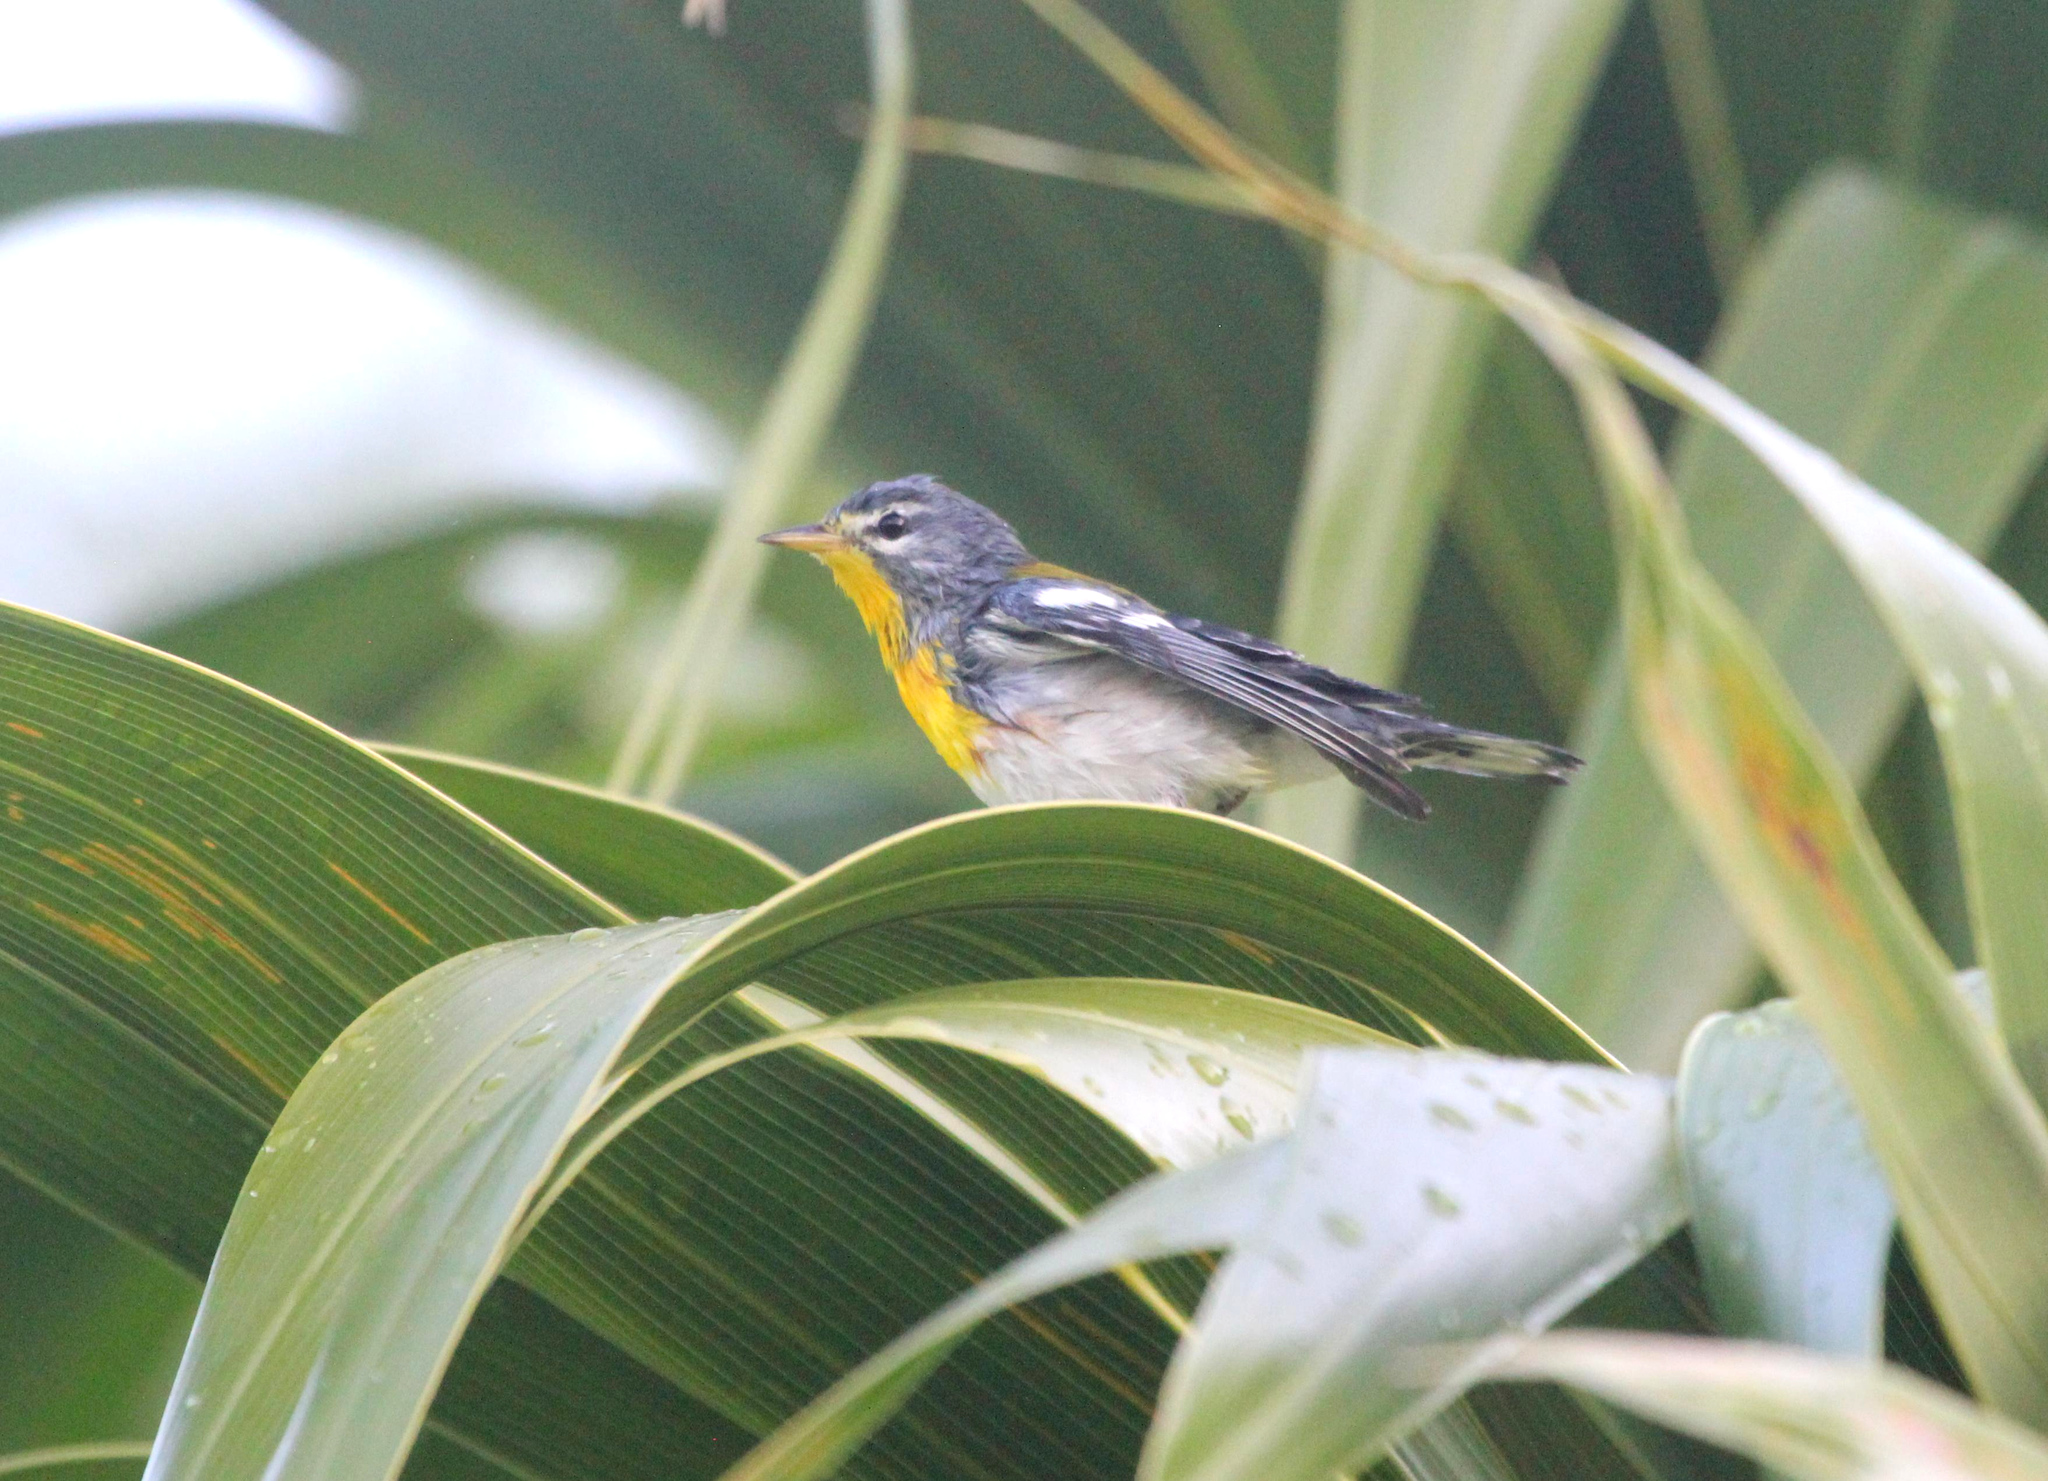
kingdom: Animalia
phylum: Chordata
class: Aves
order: Passeriformes
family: Parulidae
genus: Setophaga
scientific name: Setophaga americana
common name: Northern parula
